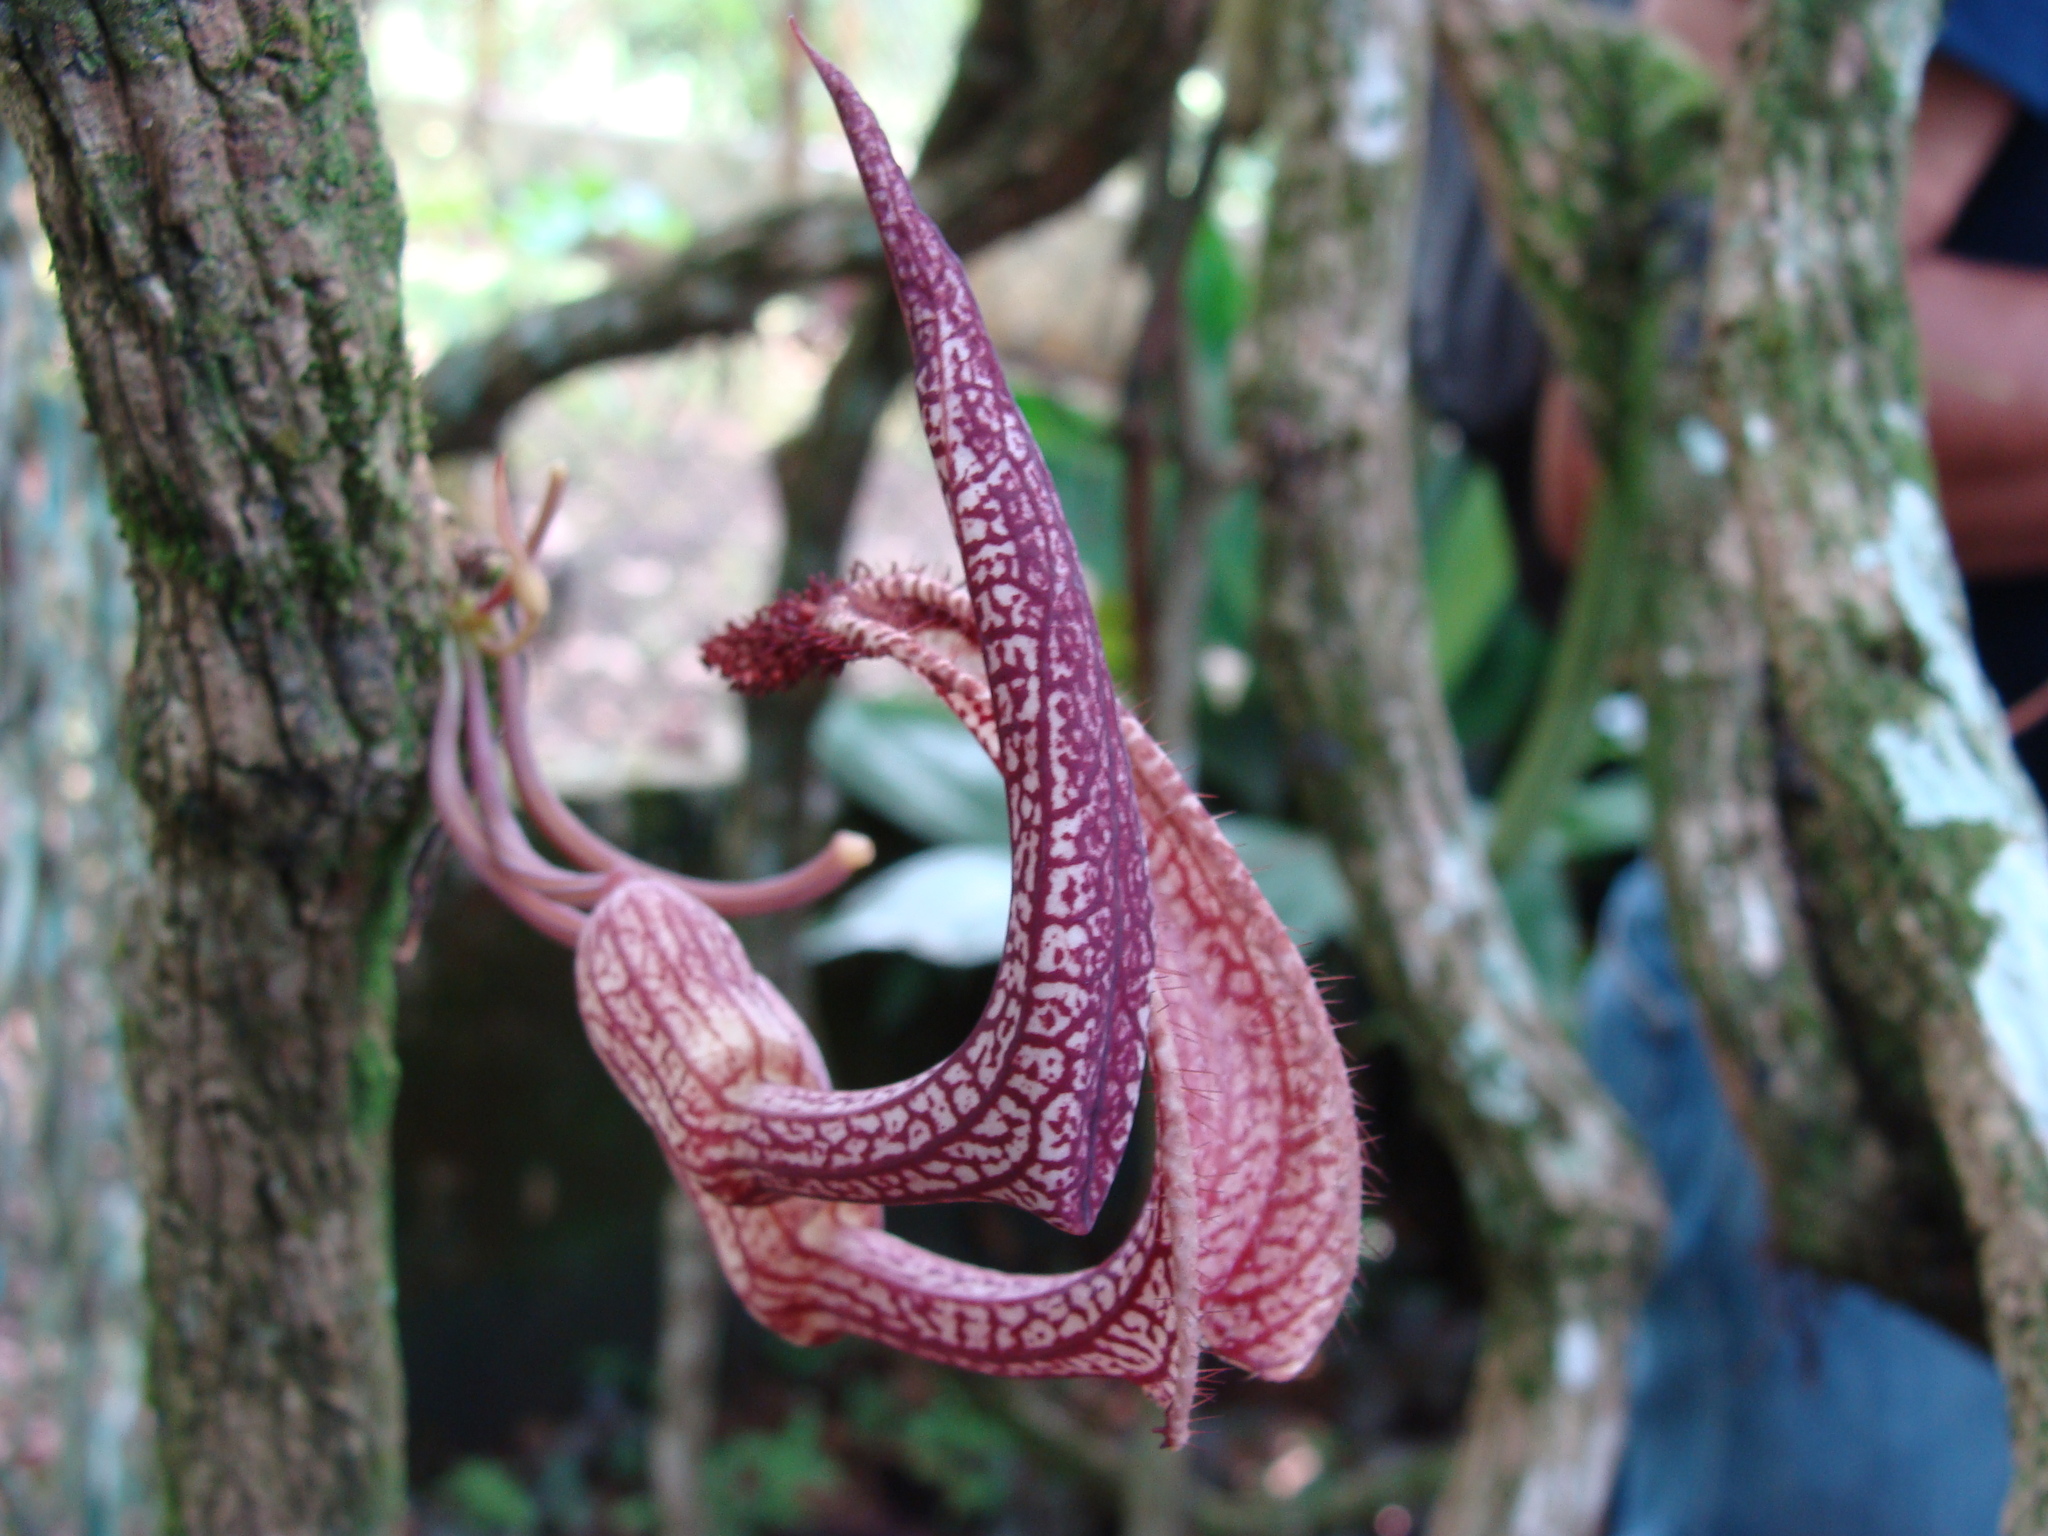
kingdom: Plantae
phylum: Tracheophyta
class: Magnoliopsida
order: Piperales
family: Aristolochiaceae
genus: Aristolochia
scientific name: Aristolochia leuconeura
